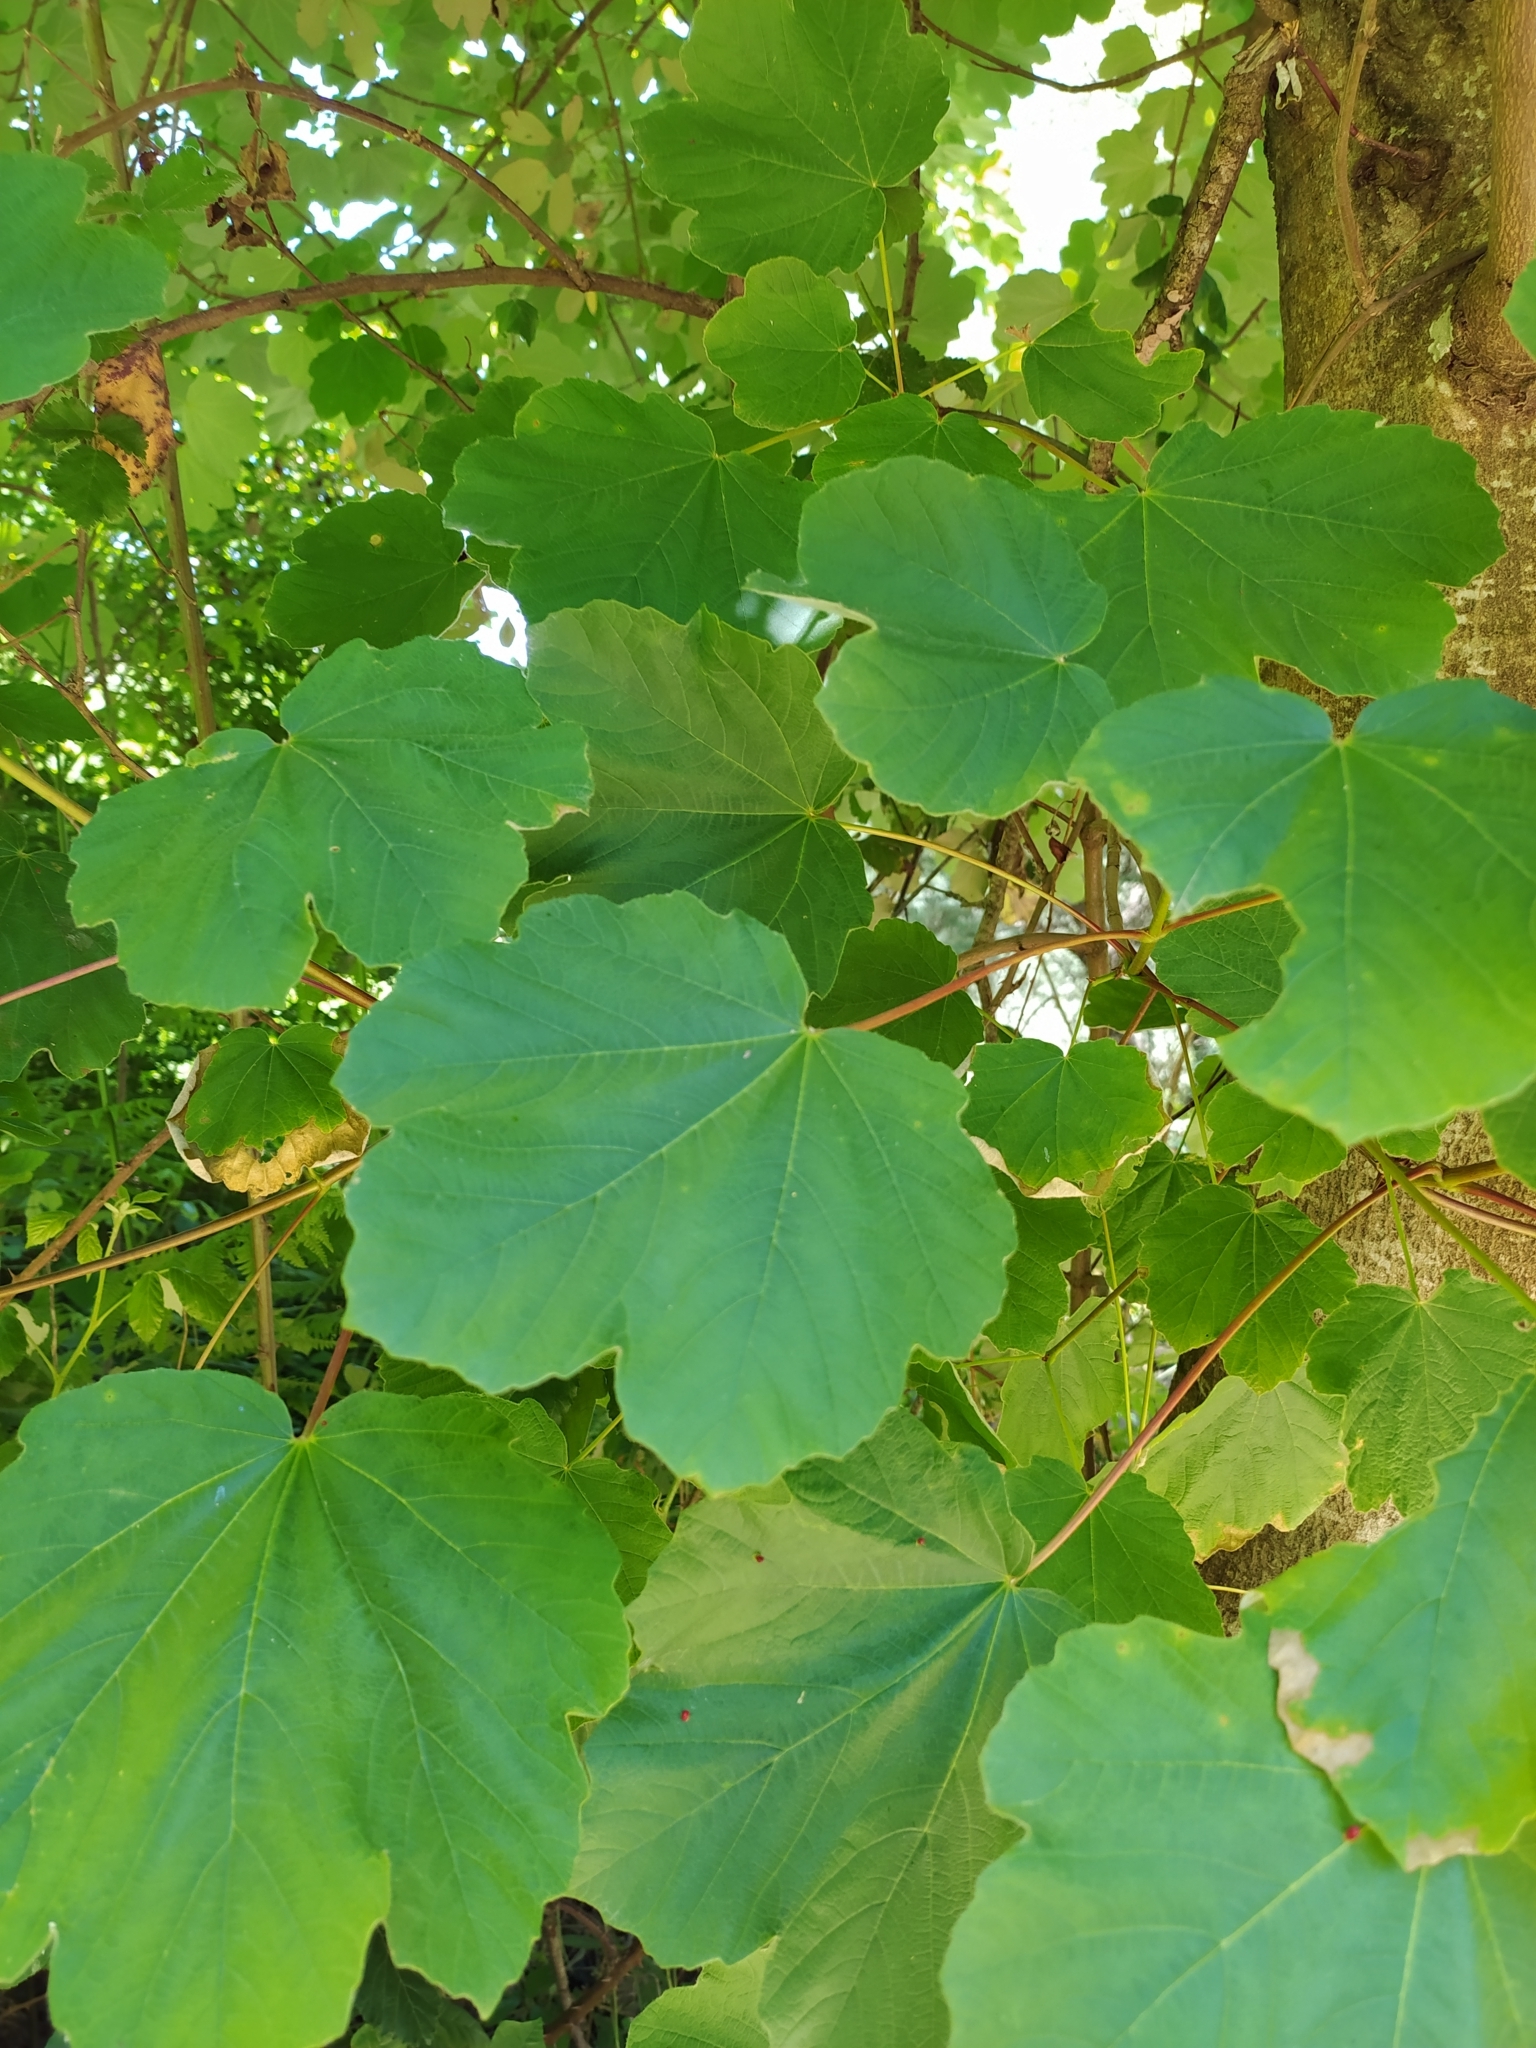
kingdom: Plantae
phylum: Tracheophyta
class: Magnoliopsida
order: Sapindales
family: Sapindaceae
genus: Acer
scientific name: Acer obtusatum
